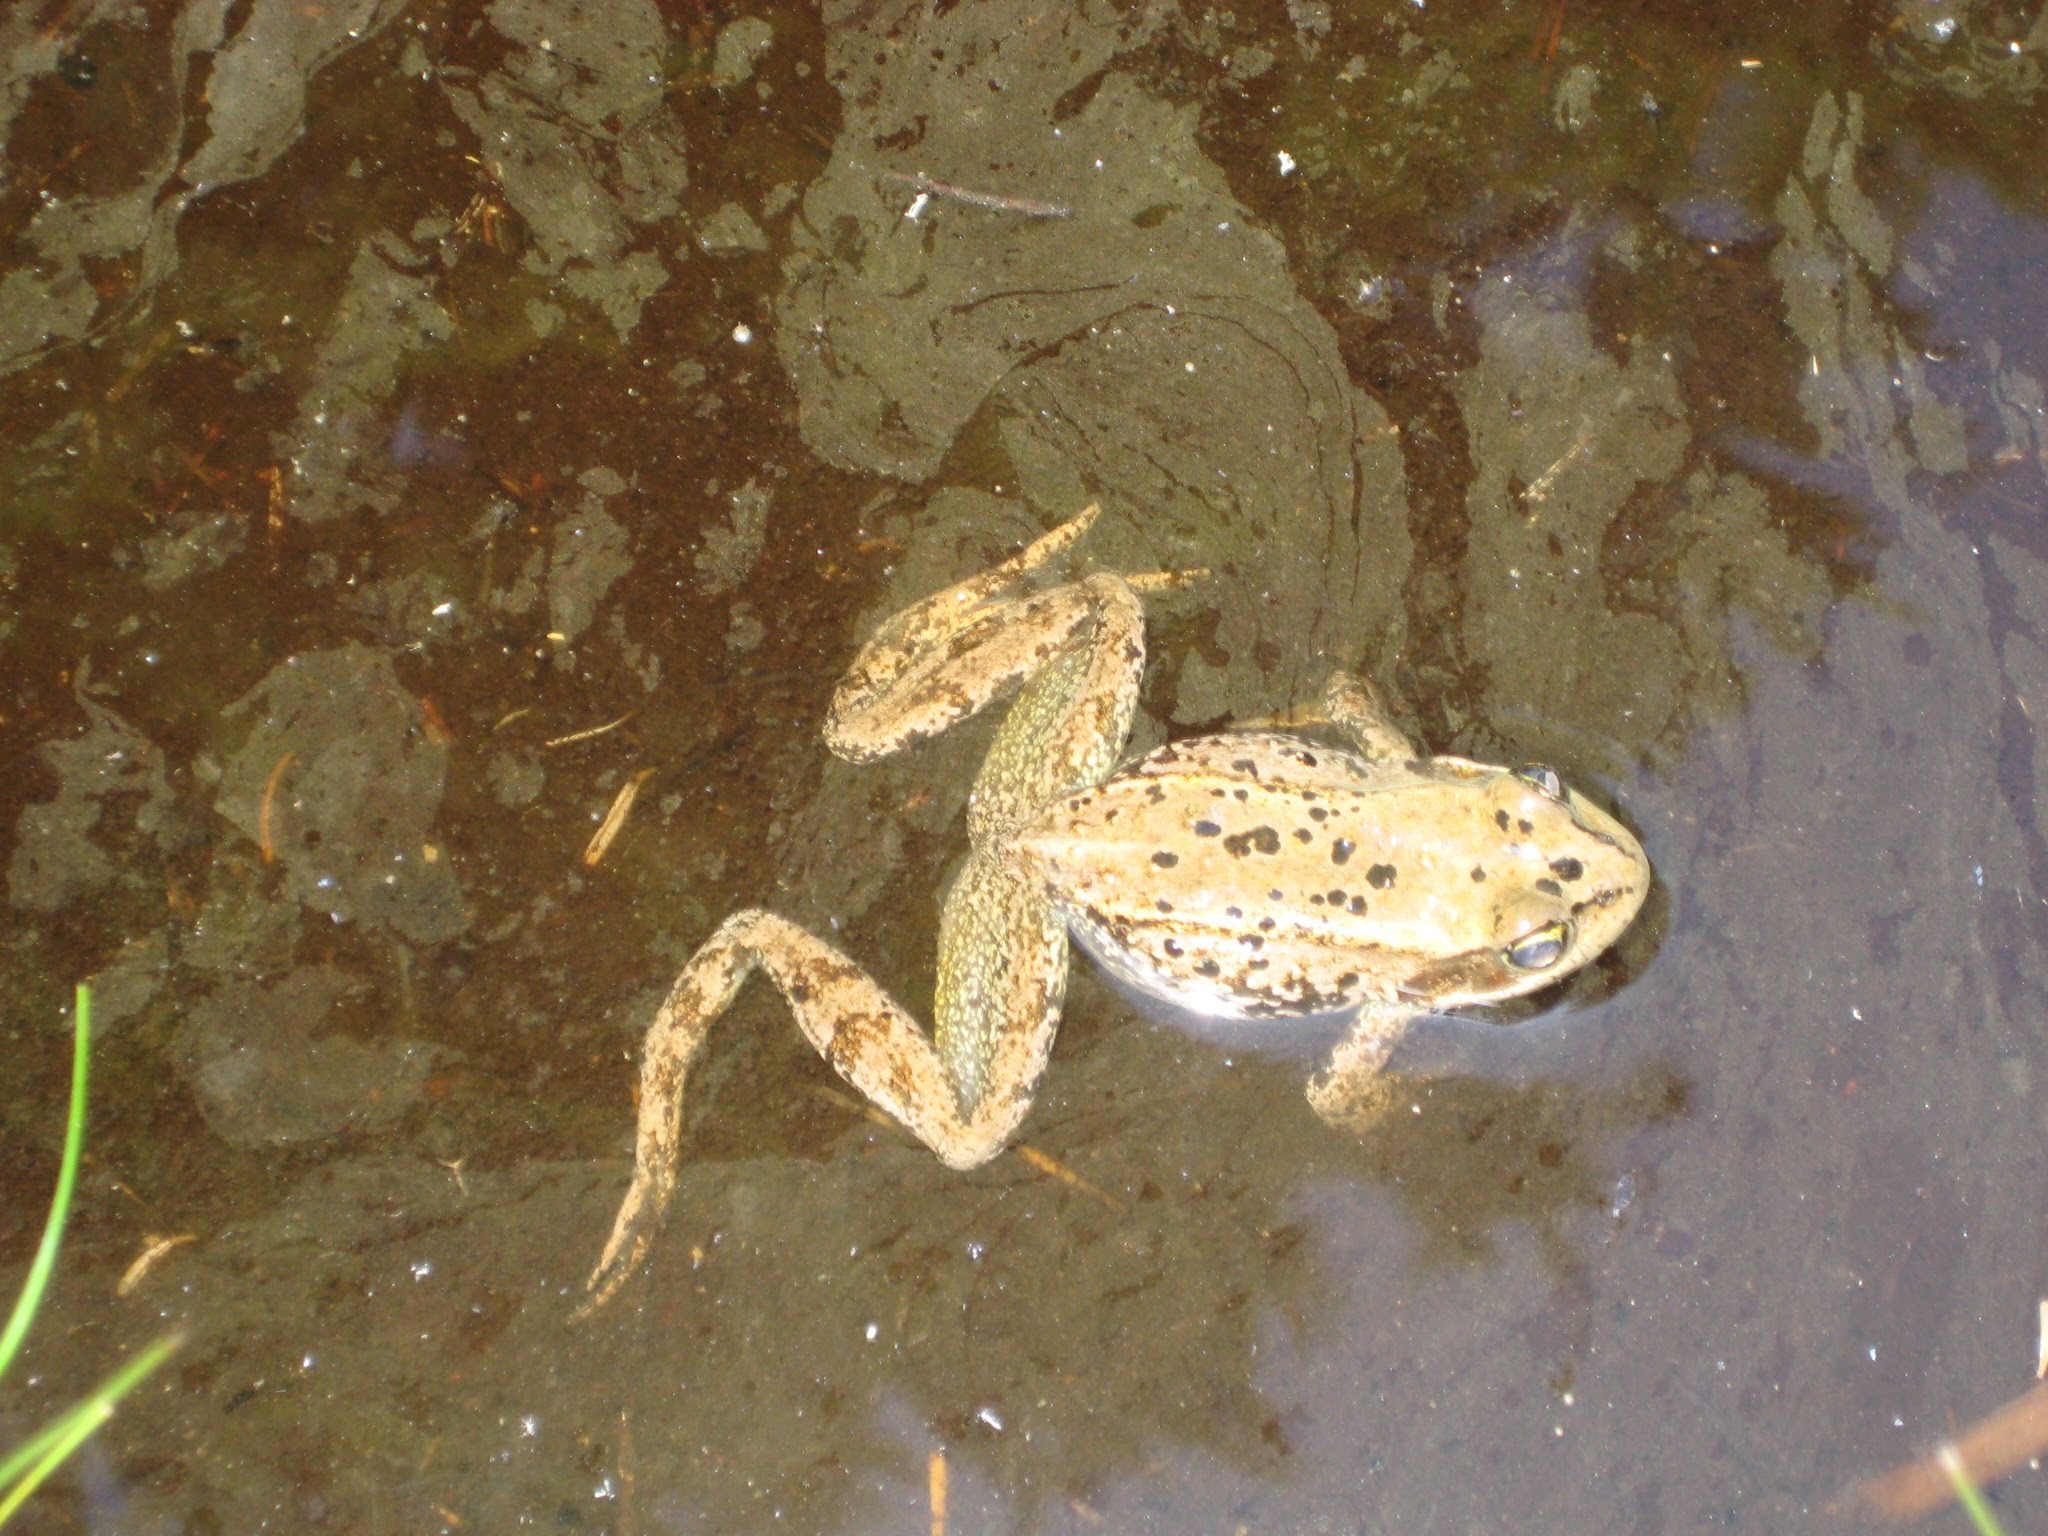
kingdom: Animalia
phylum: Chordata
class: Amphibia
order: Anura
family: Ranidae
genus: Rana
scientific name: Rana cascadae
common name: Cascades frog
